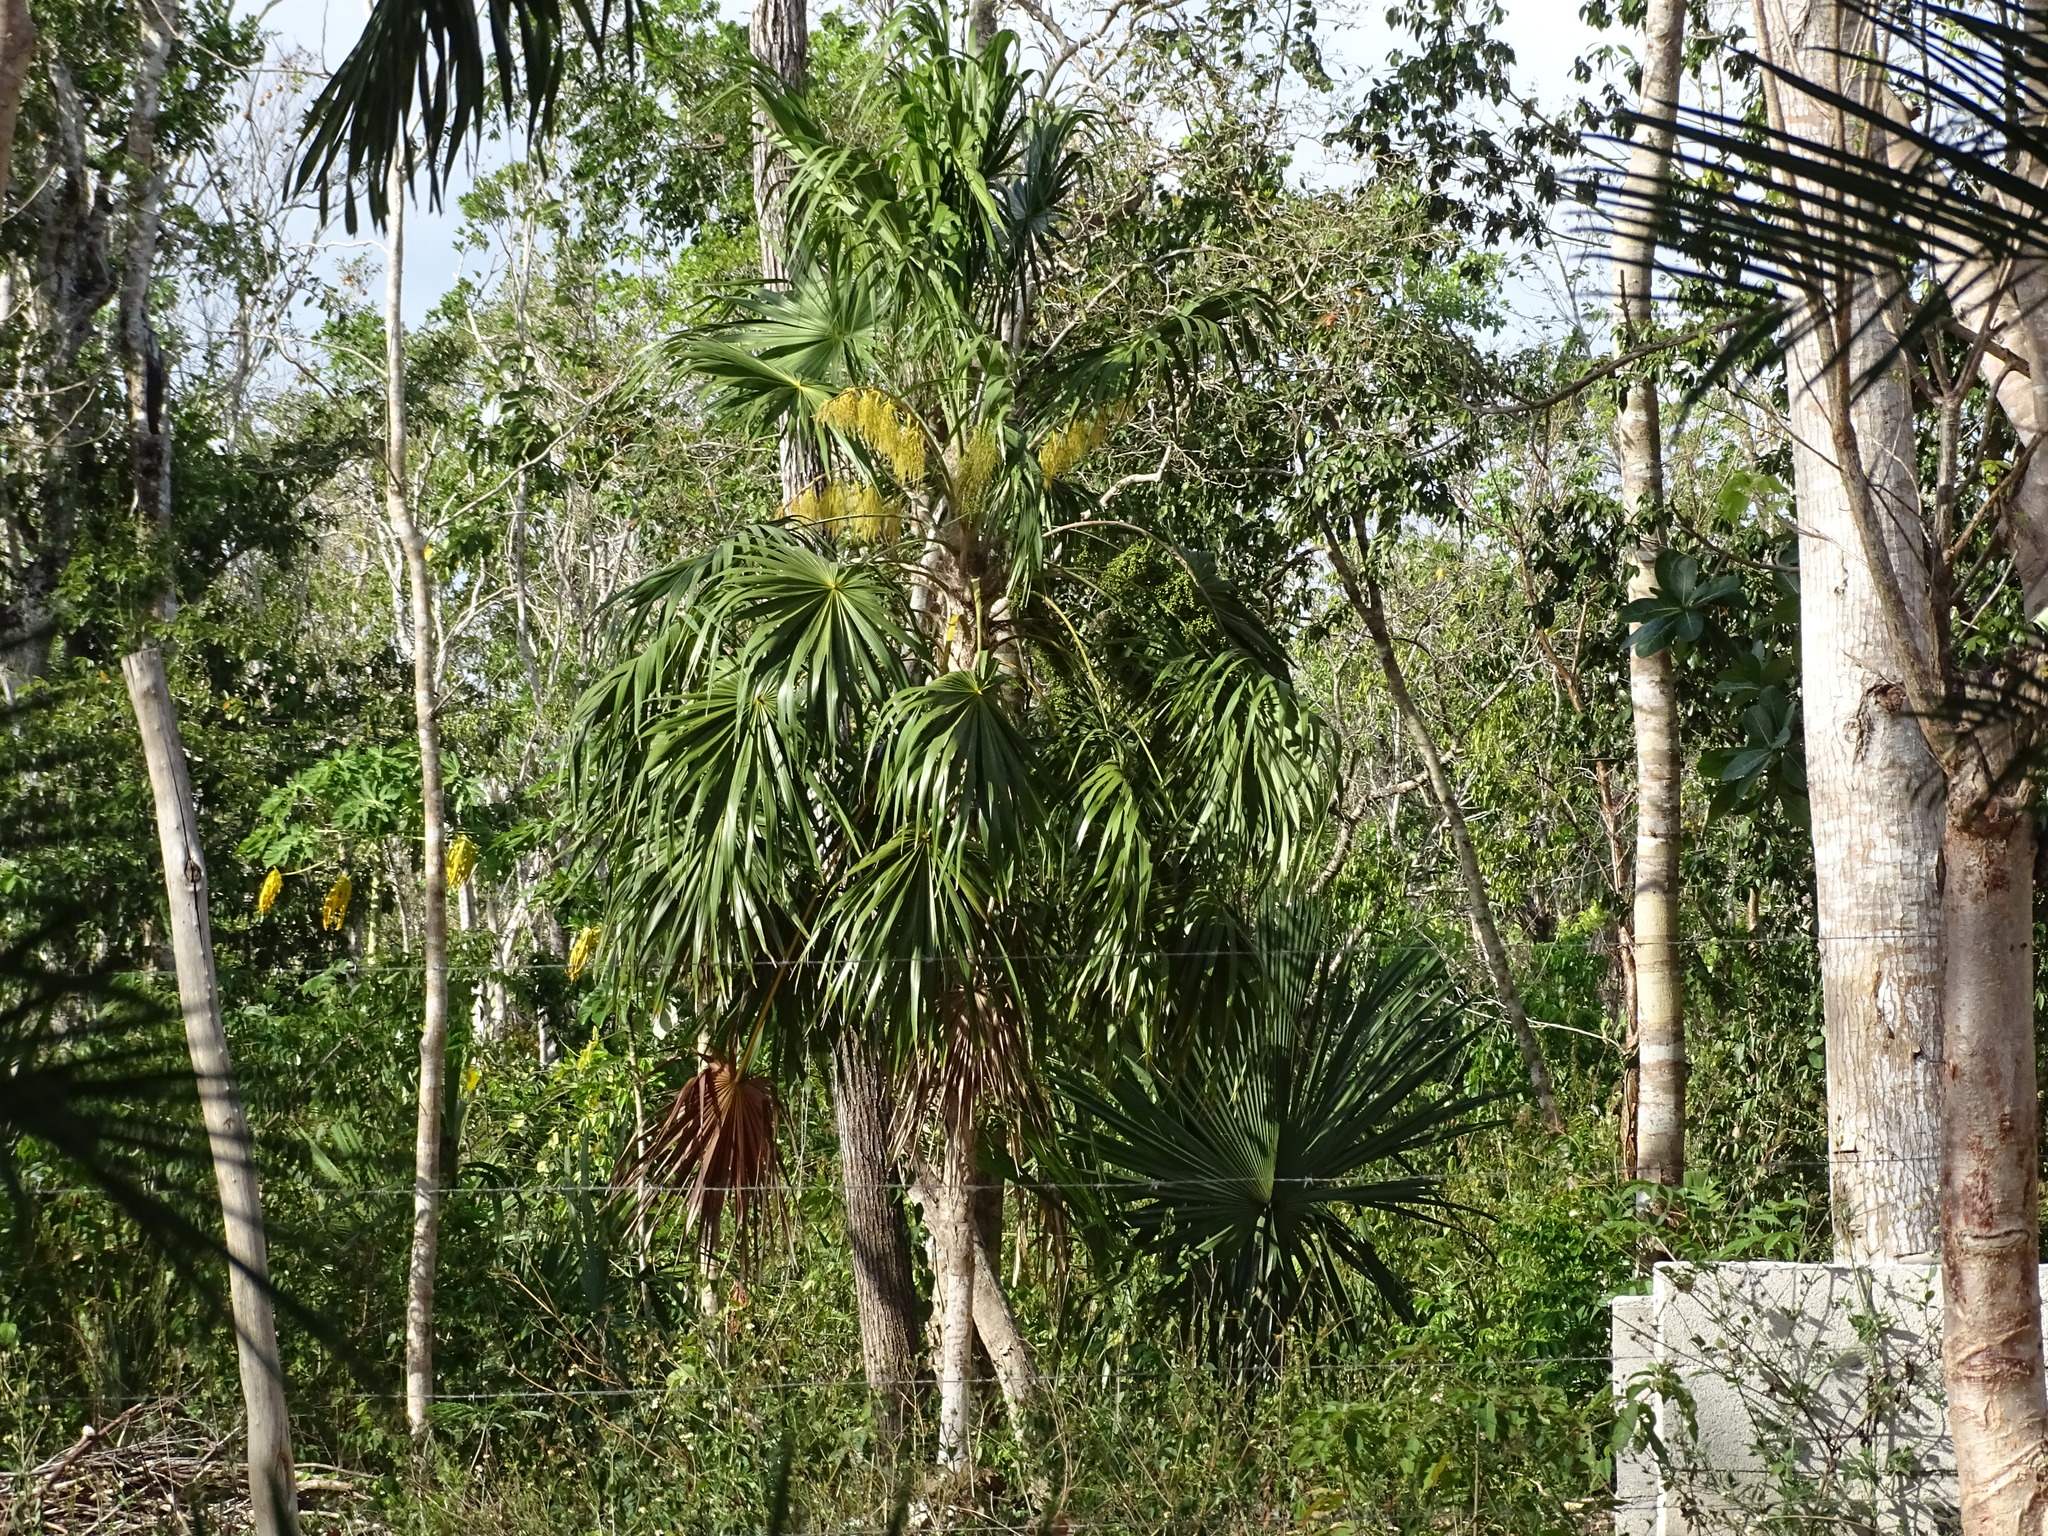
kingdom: Plantae
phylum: Tracheophyta
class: Liliopsida
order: Arecales
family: Arecaceae
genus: Thrinax
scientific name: Thrinax radiata
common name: Florida thatch
